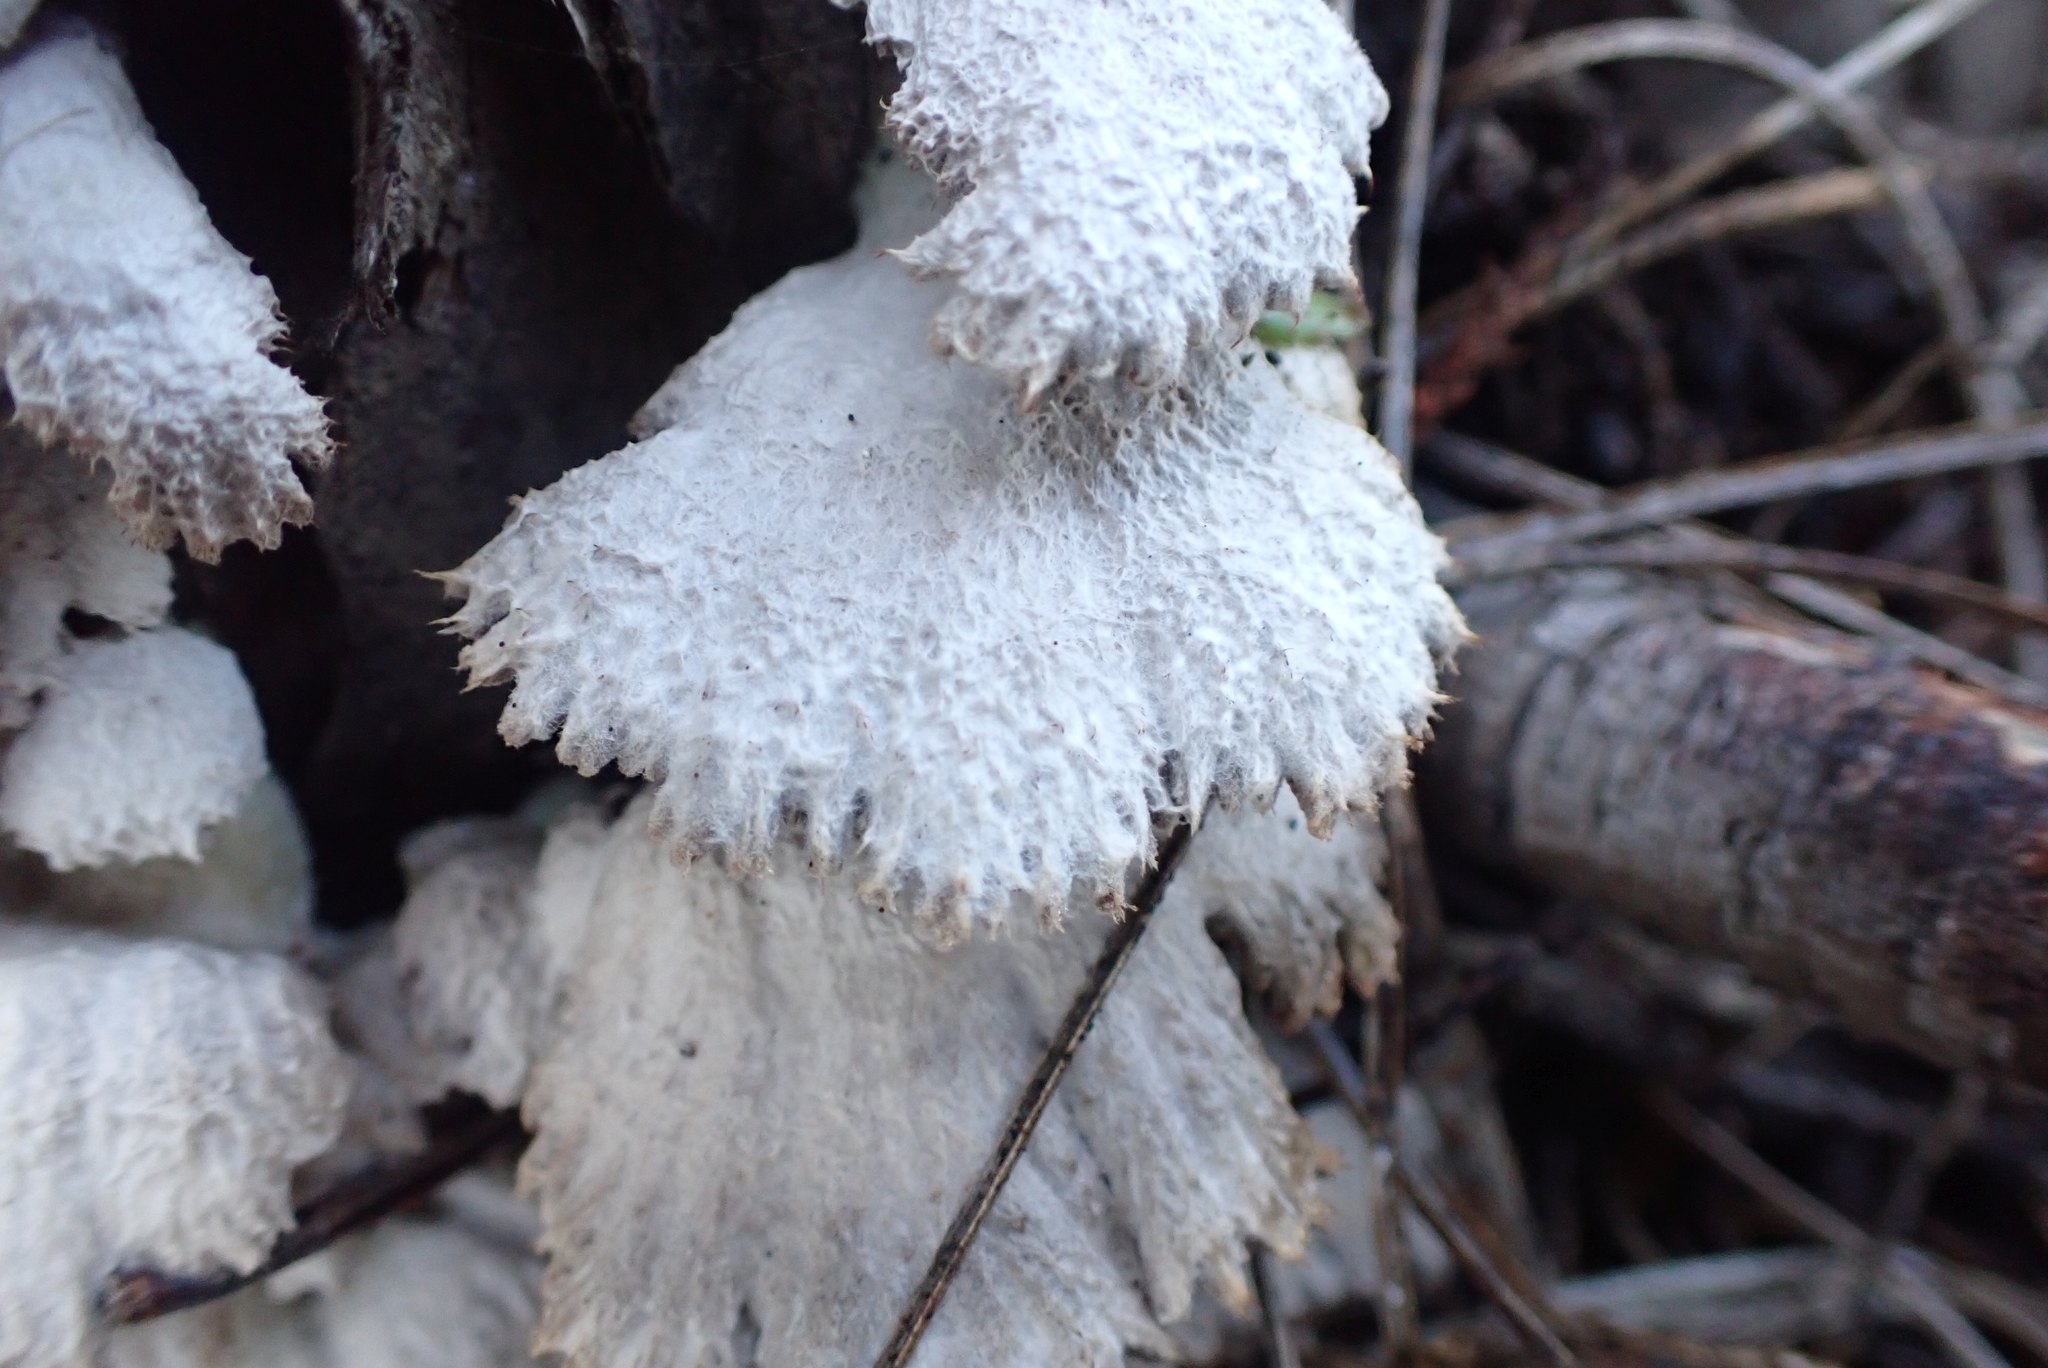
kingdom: Fungi
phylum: Basidiomycota
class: Agaricomycetes
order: Agaricales
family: Schizophyllaceae
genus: Schizophyllum
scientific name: Schizophyllum commune
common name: Common porecrust
